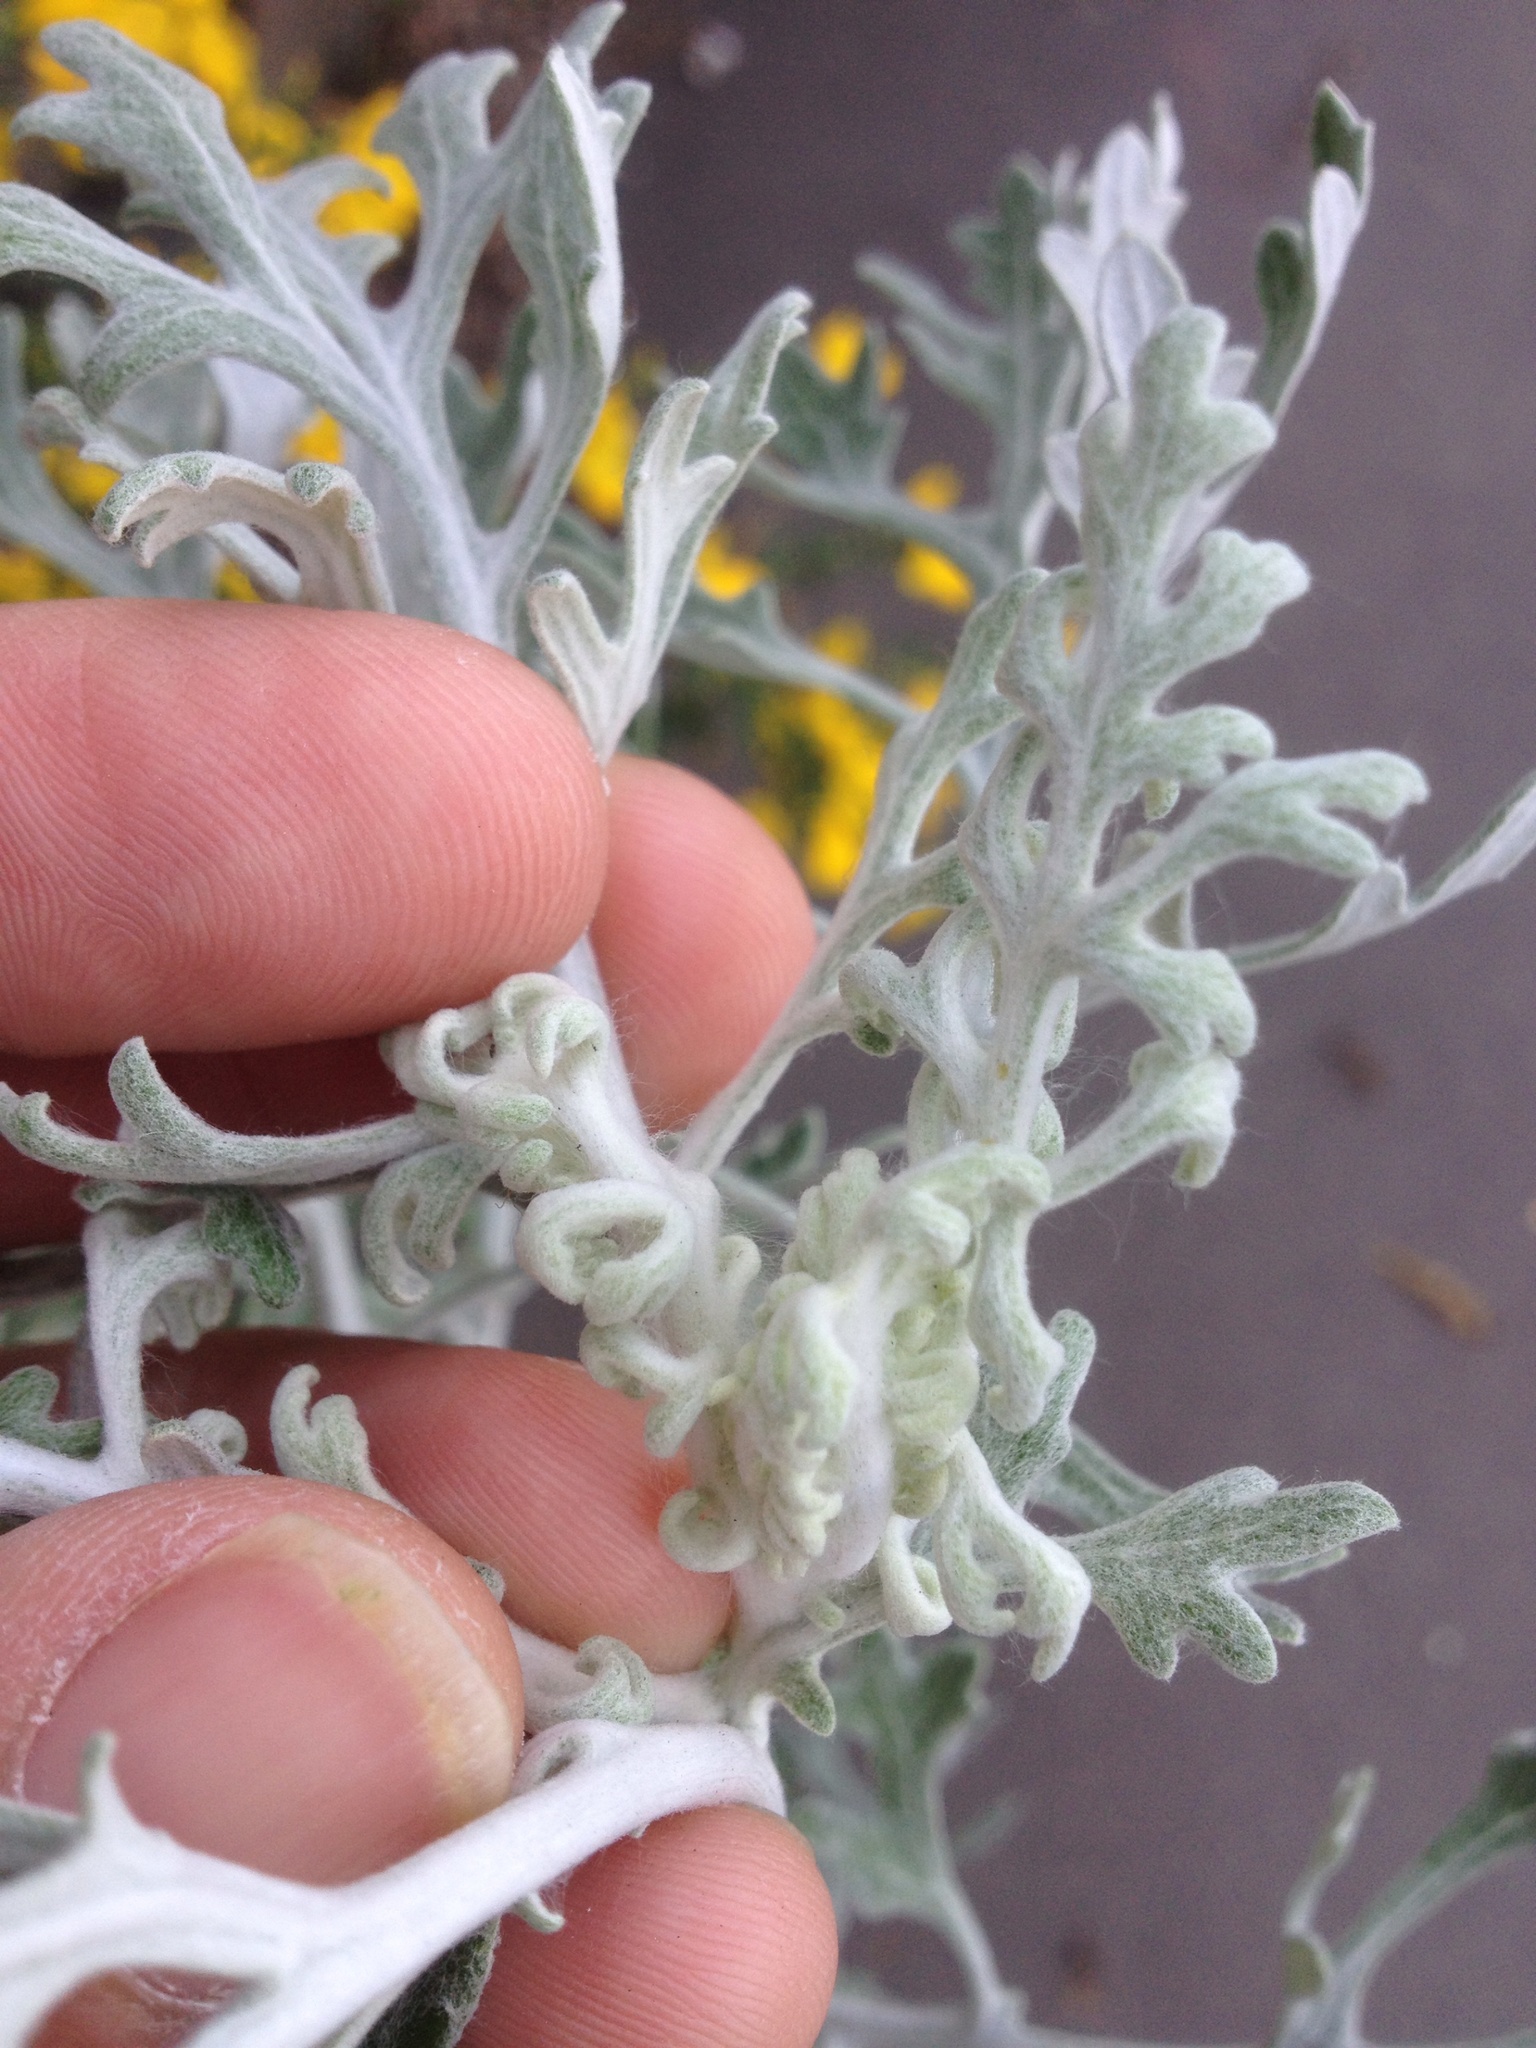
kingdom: Plantae
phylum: Tracheophyta
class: Magnoliopsida
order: Asterales
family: Asteraceae
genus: Jacobaea
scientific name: Jacobaea maritima
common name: Silver ragwort
